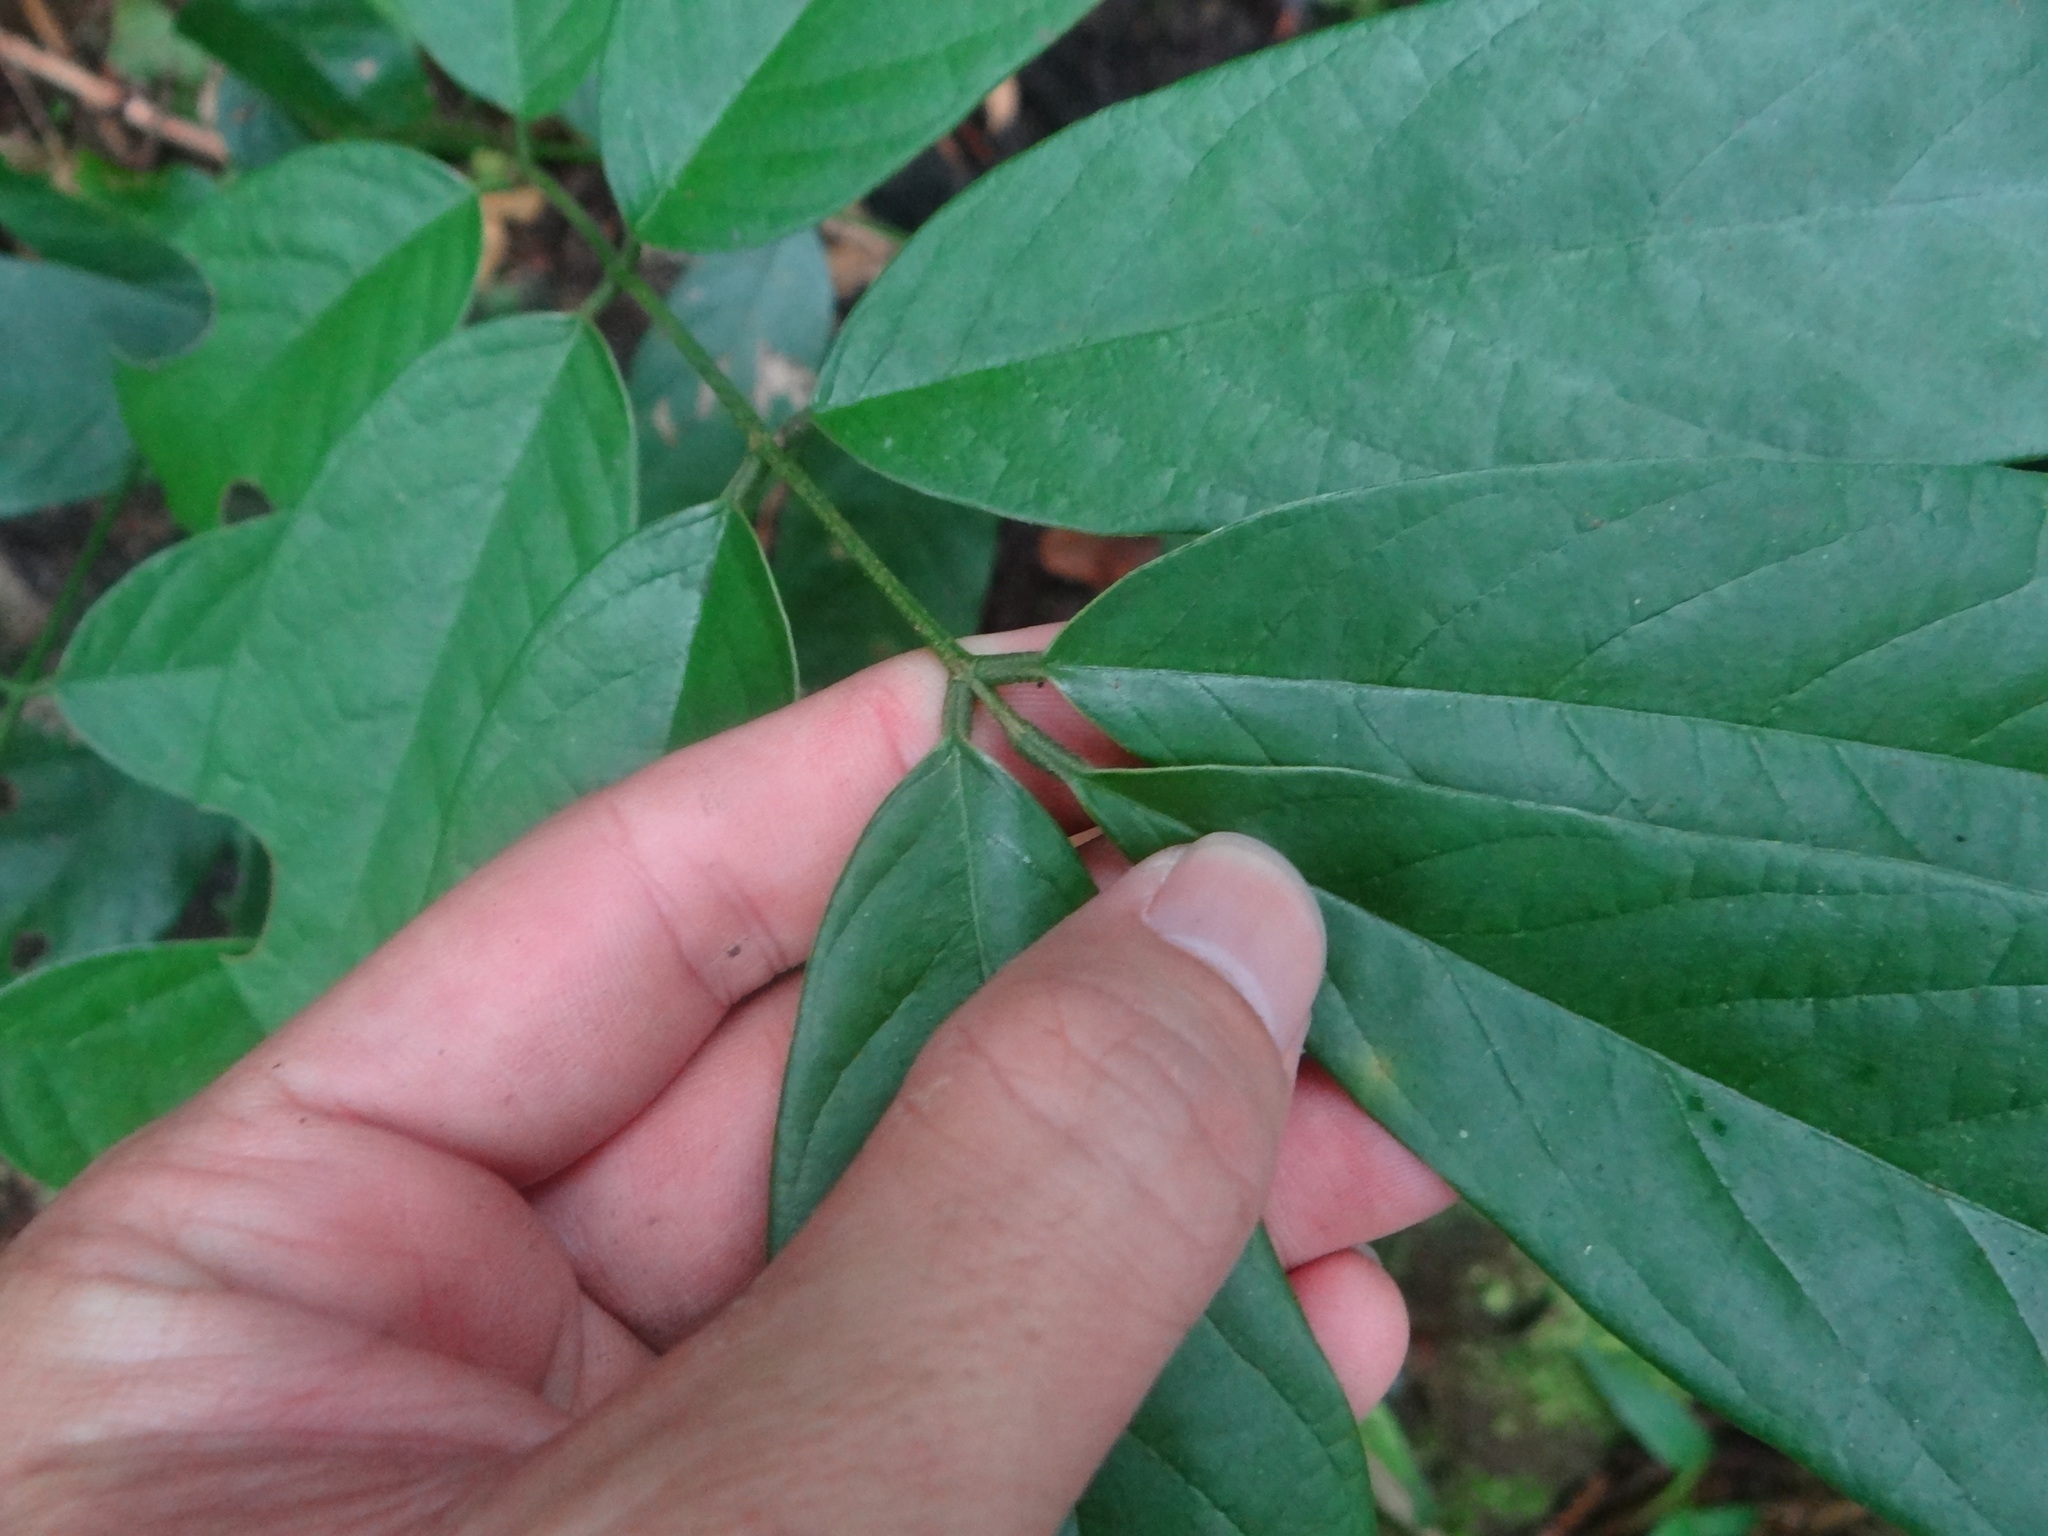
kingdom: Plantae
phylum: Tracheophyta
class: Magnoliopsida
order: Fabales
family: Fabaceae
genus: Millettia
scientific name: Millettia pachycarpa
